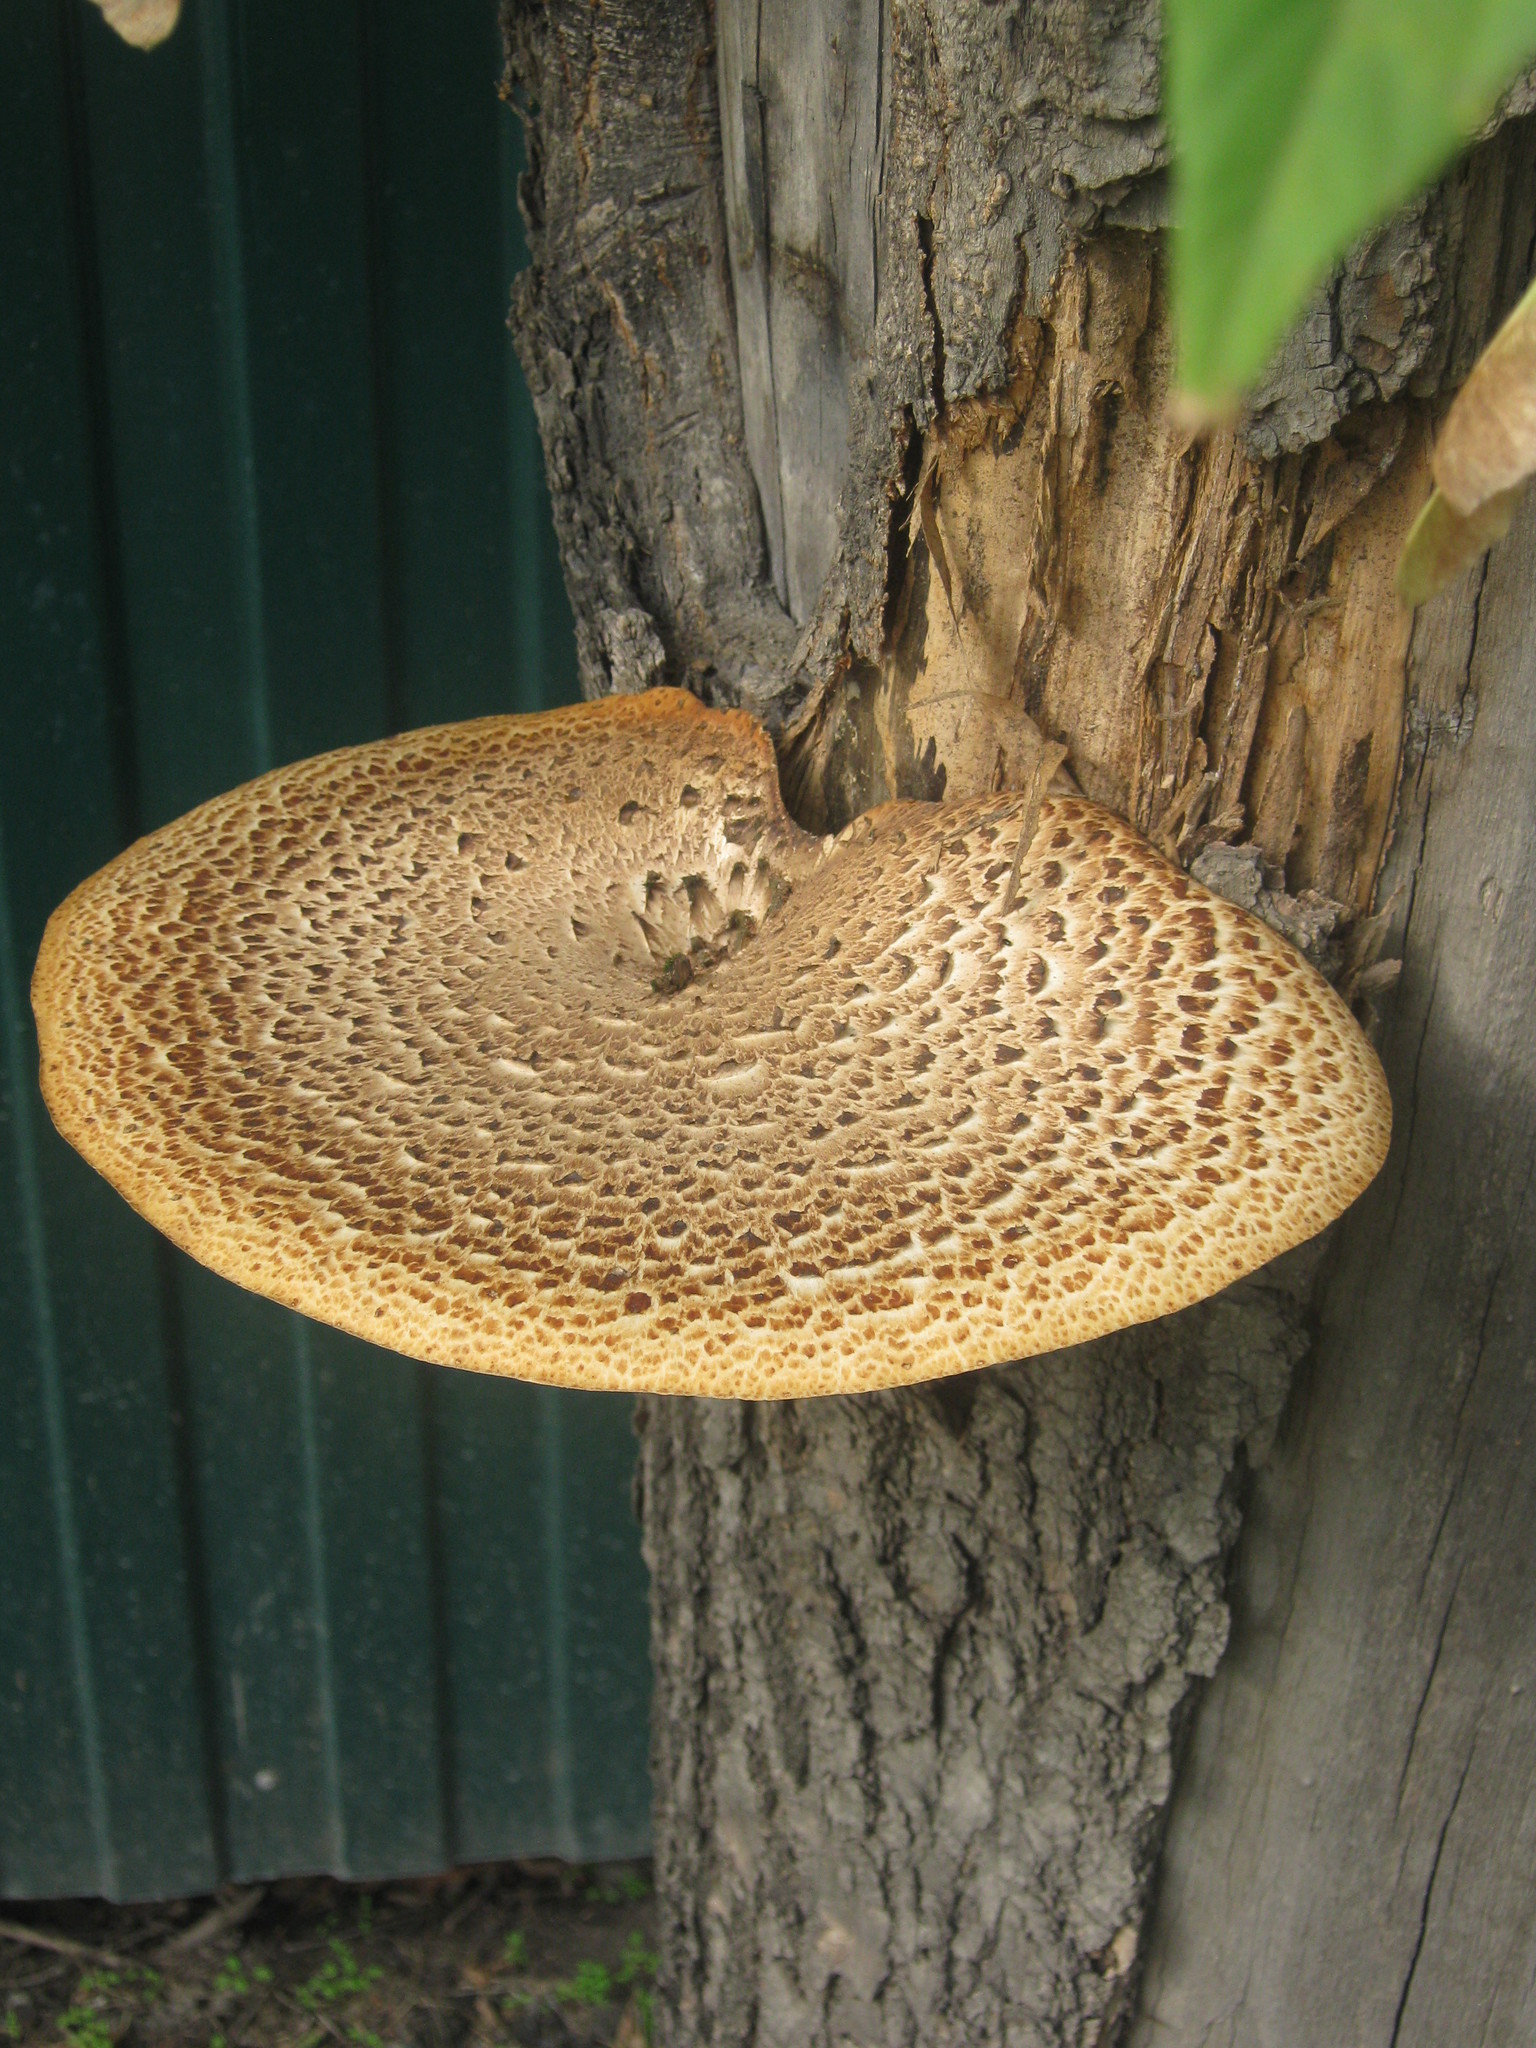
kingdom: Fungi
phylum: Basidiomycota
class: Agaricomycetes
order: Polyporales
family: Polyporaceae
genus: Cerioporus
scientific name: Cerioporus squamosus
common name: Dryad's saddle
